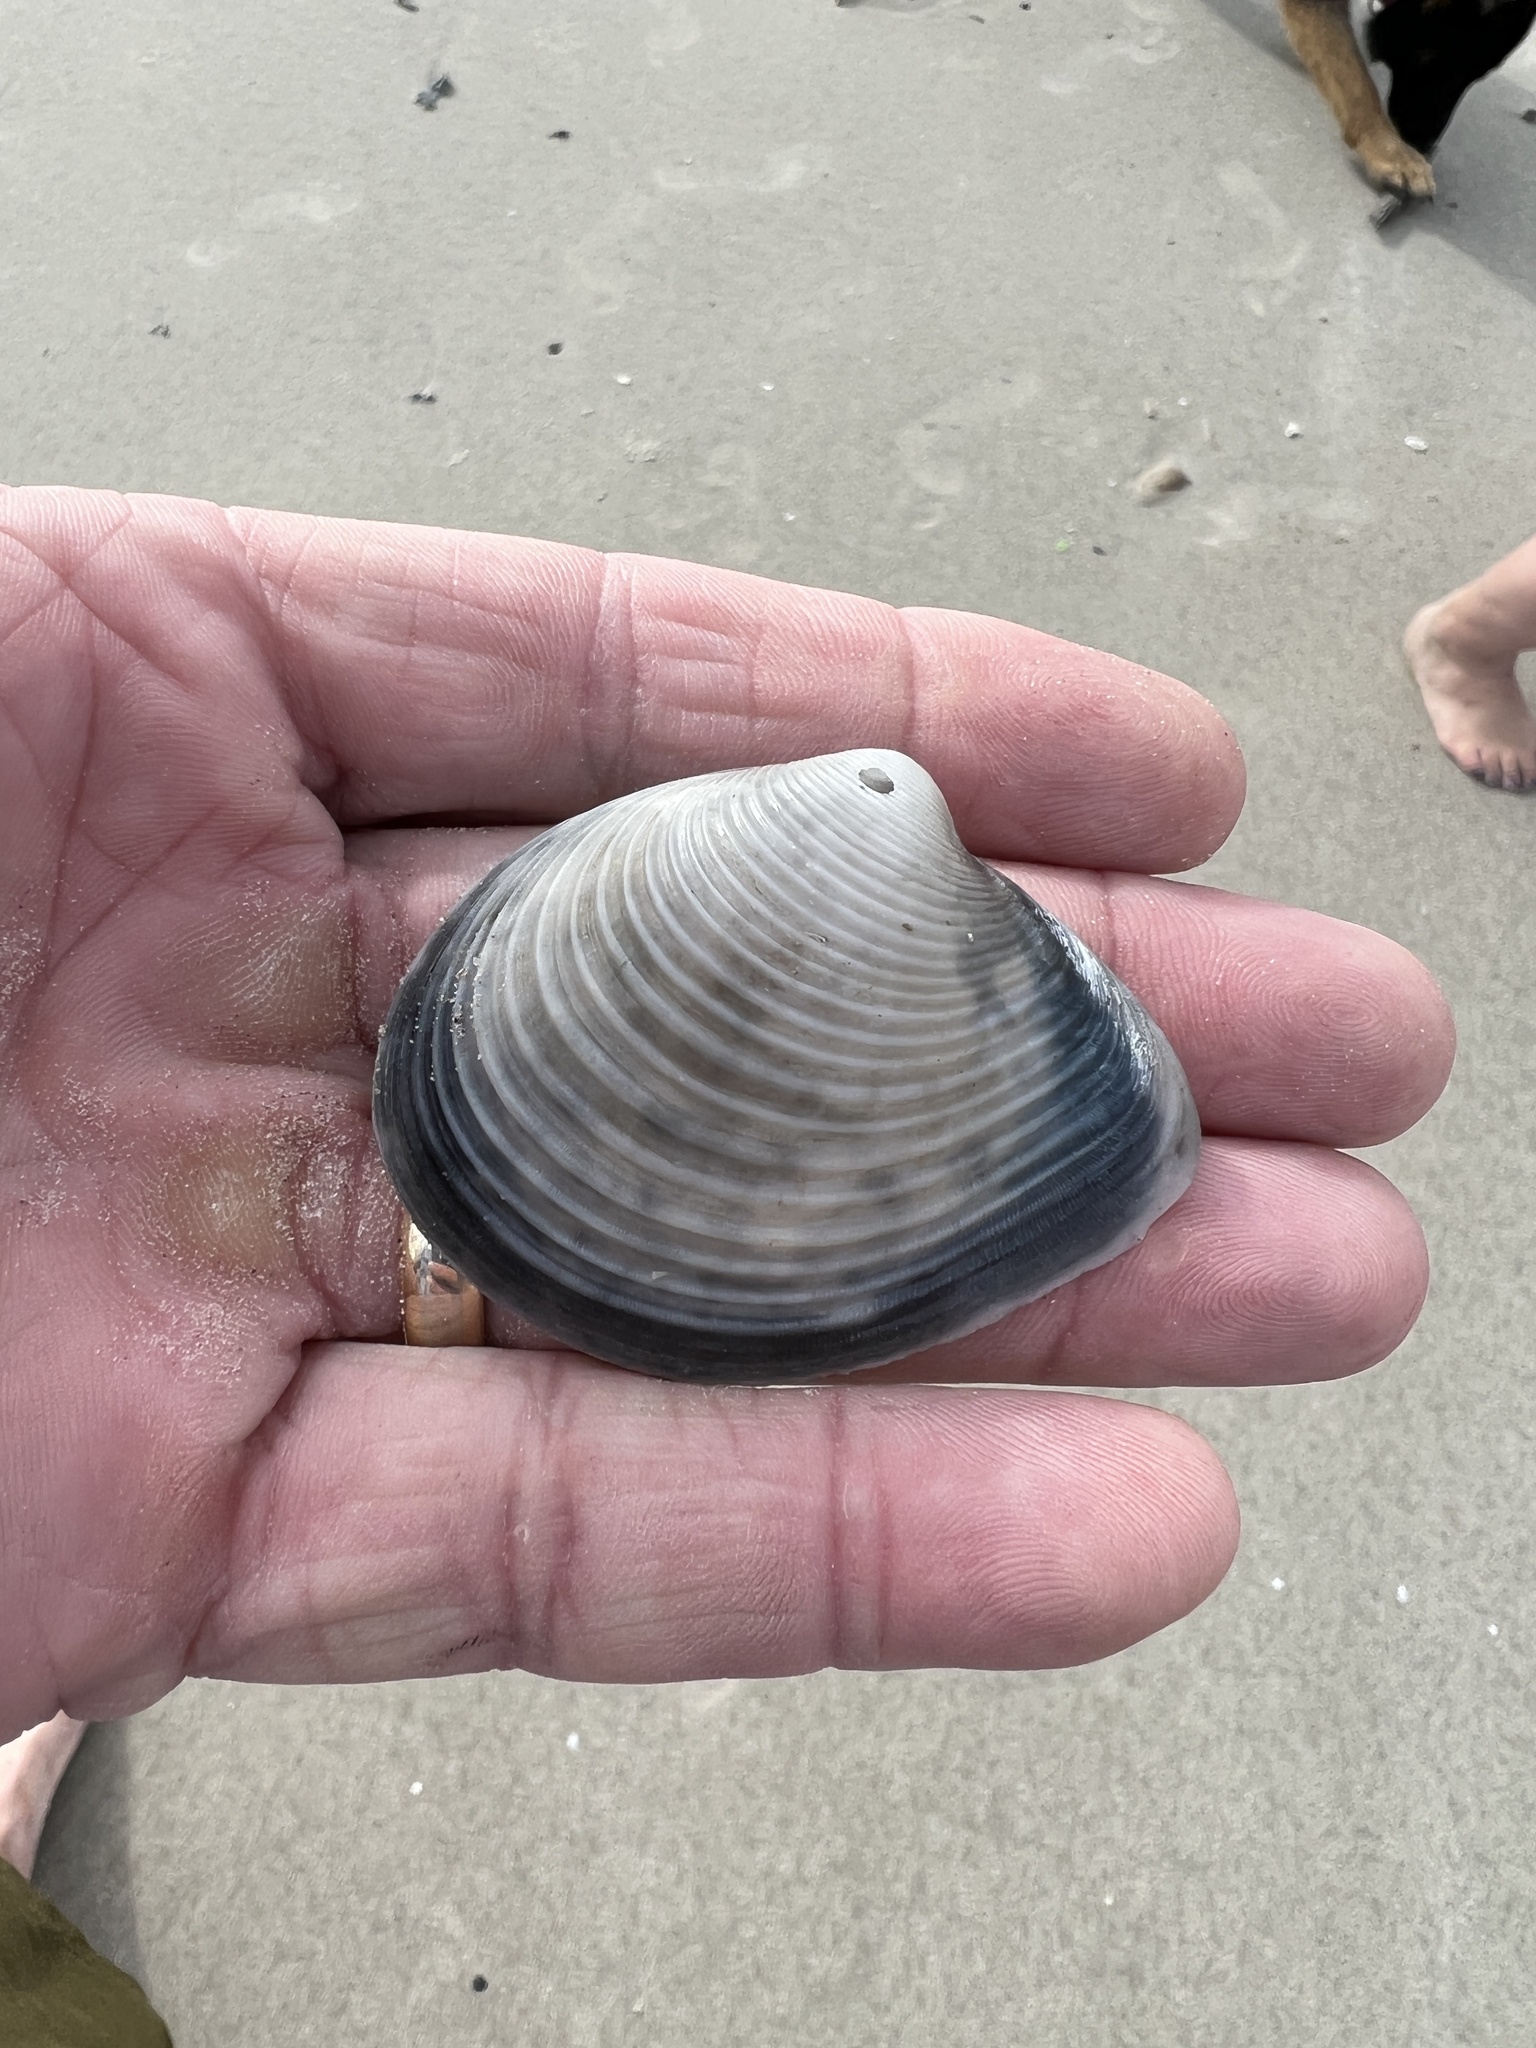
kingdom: Animalia
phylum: Mollusca
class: Bivalvia
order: Venerida
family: Anatinellidae
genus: Raeta
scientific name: Raeta plicatella
